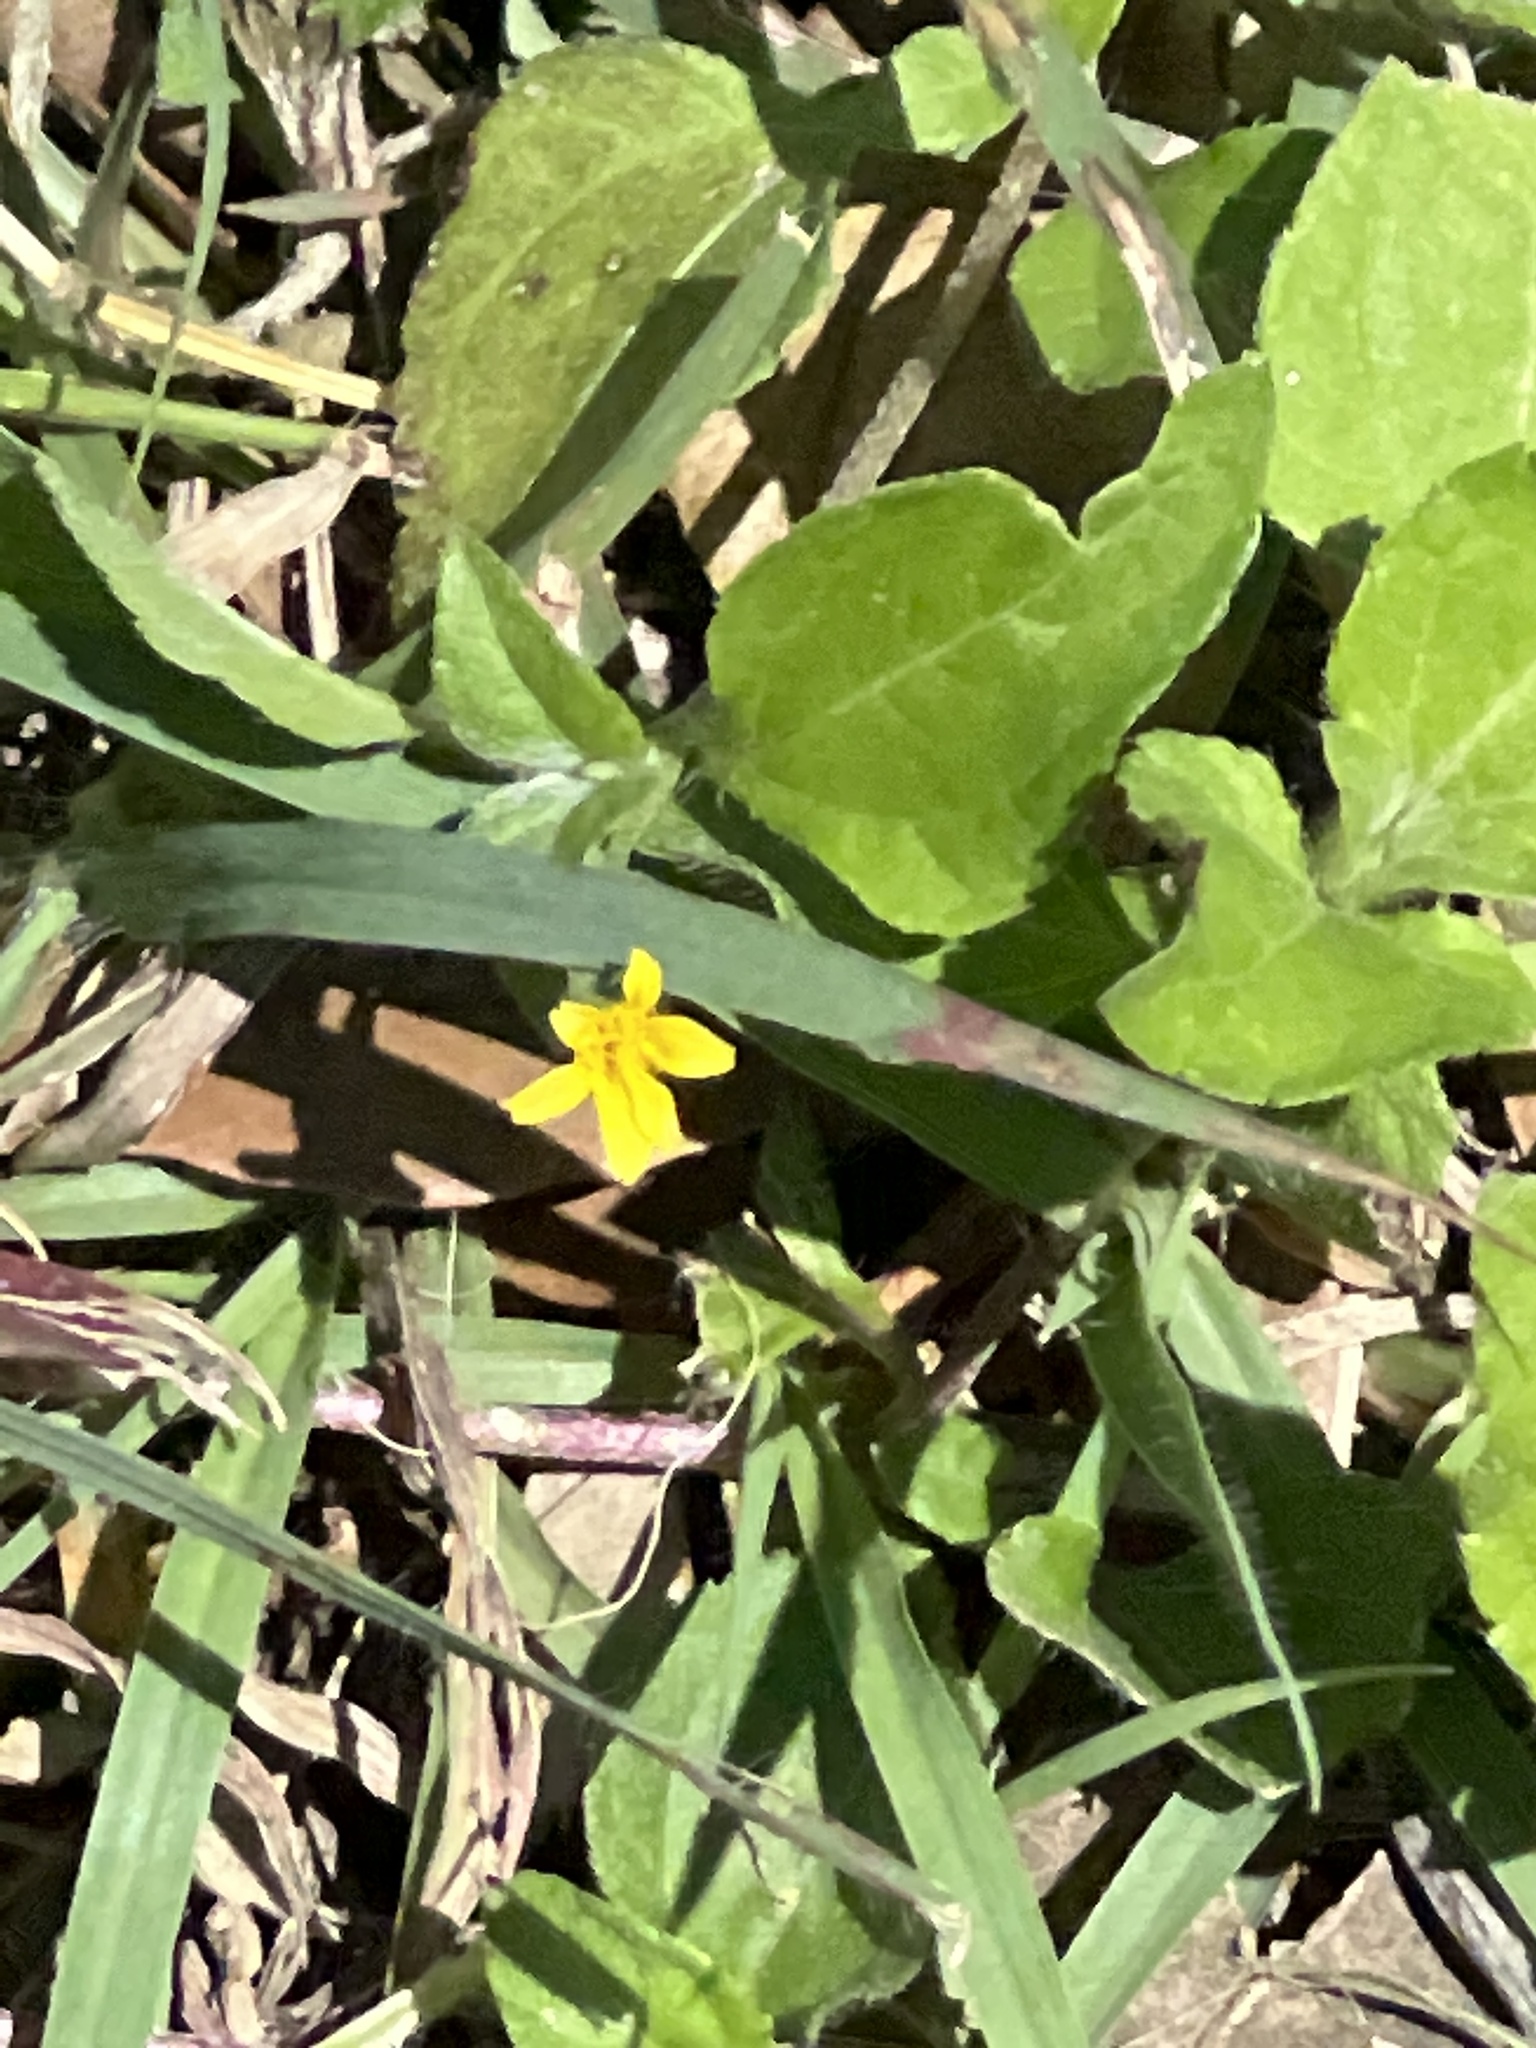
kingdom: Plantae
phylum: Tracheophyta
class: Magnoliopsida
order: Asterales
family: Asteraceae
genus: Calyptocarpus
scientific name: Calyptocarpus vialis
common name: Straggler daisy
